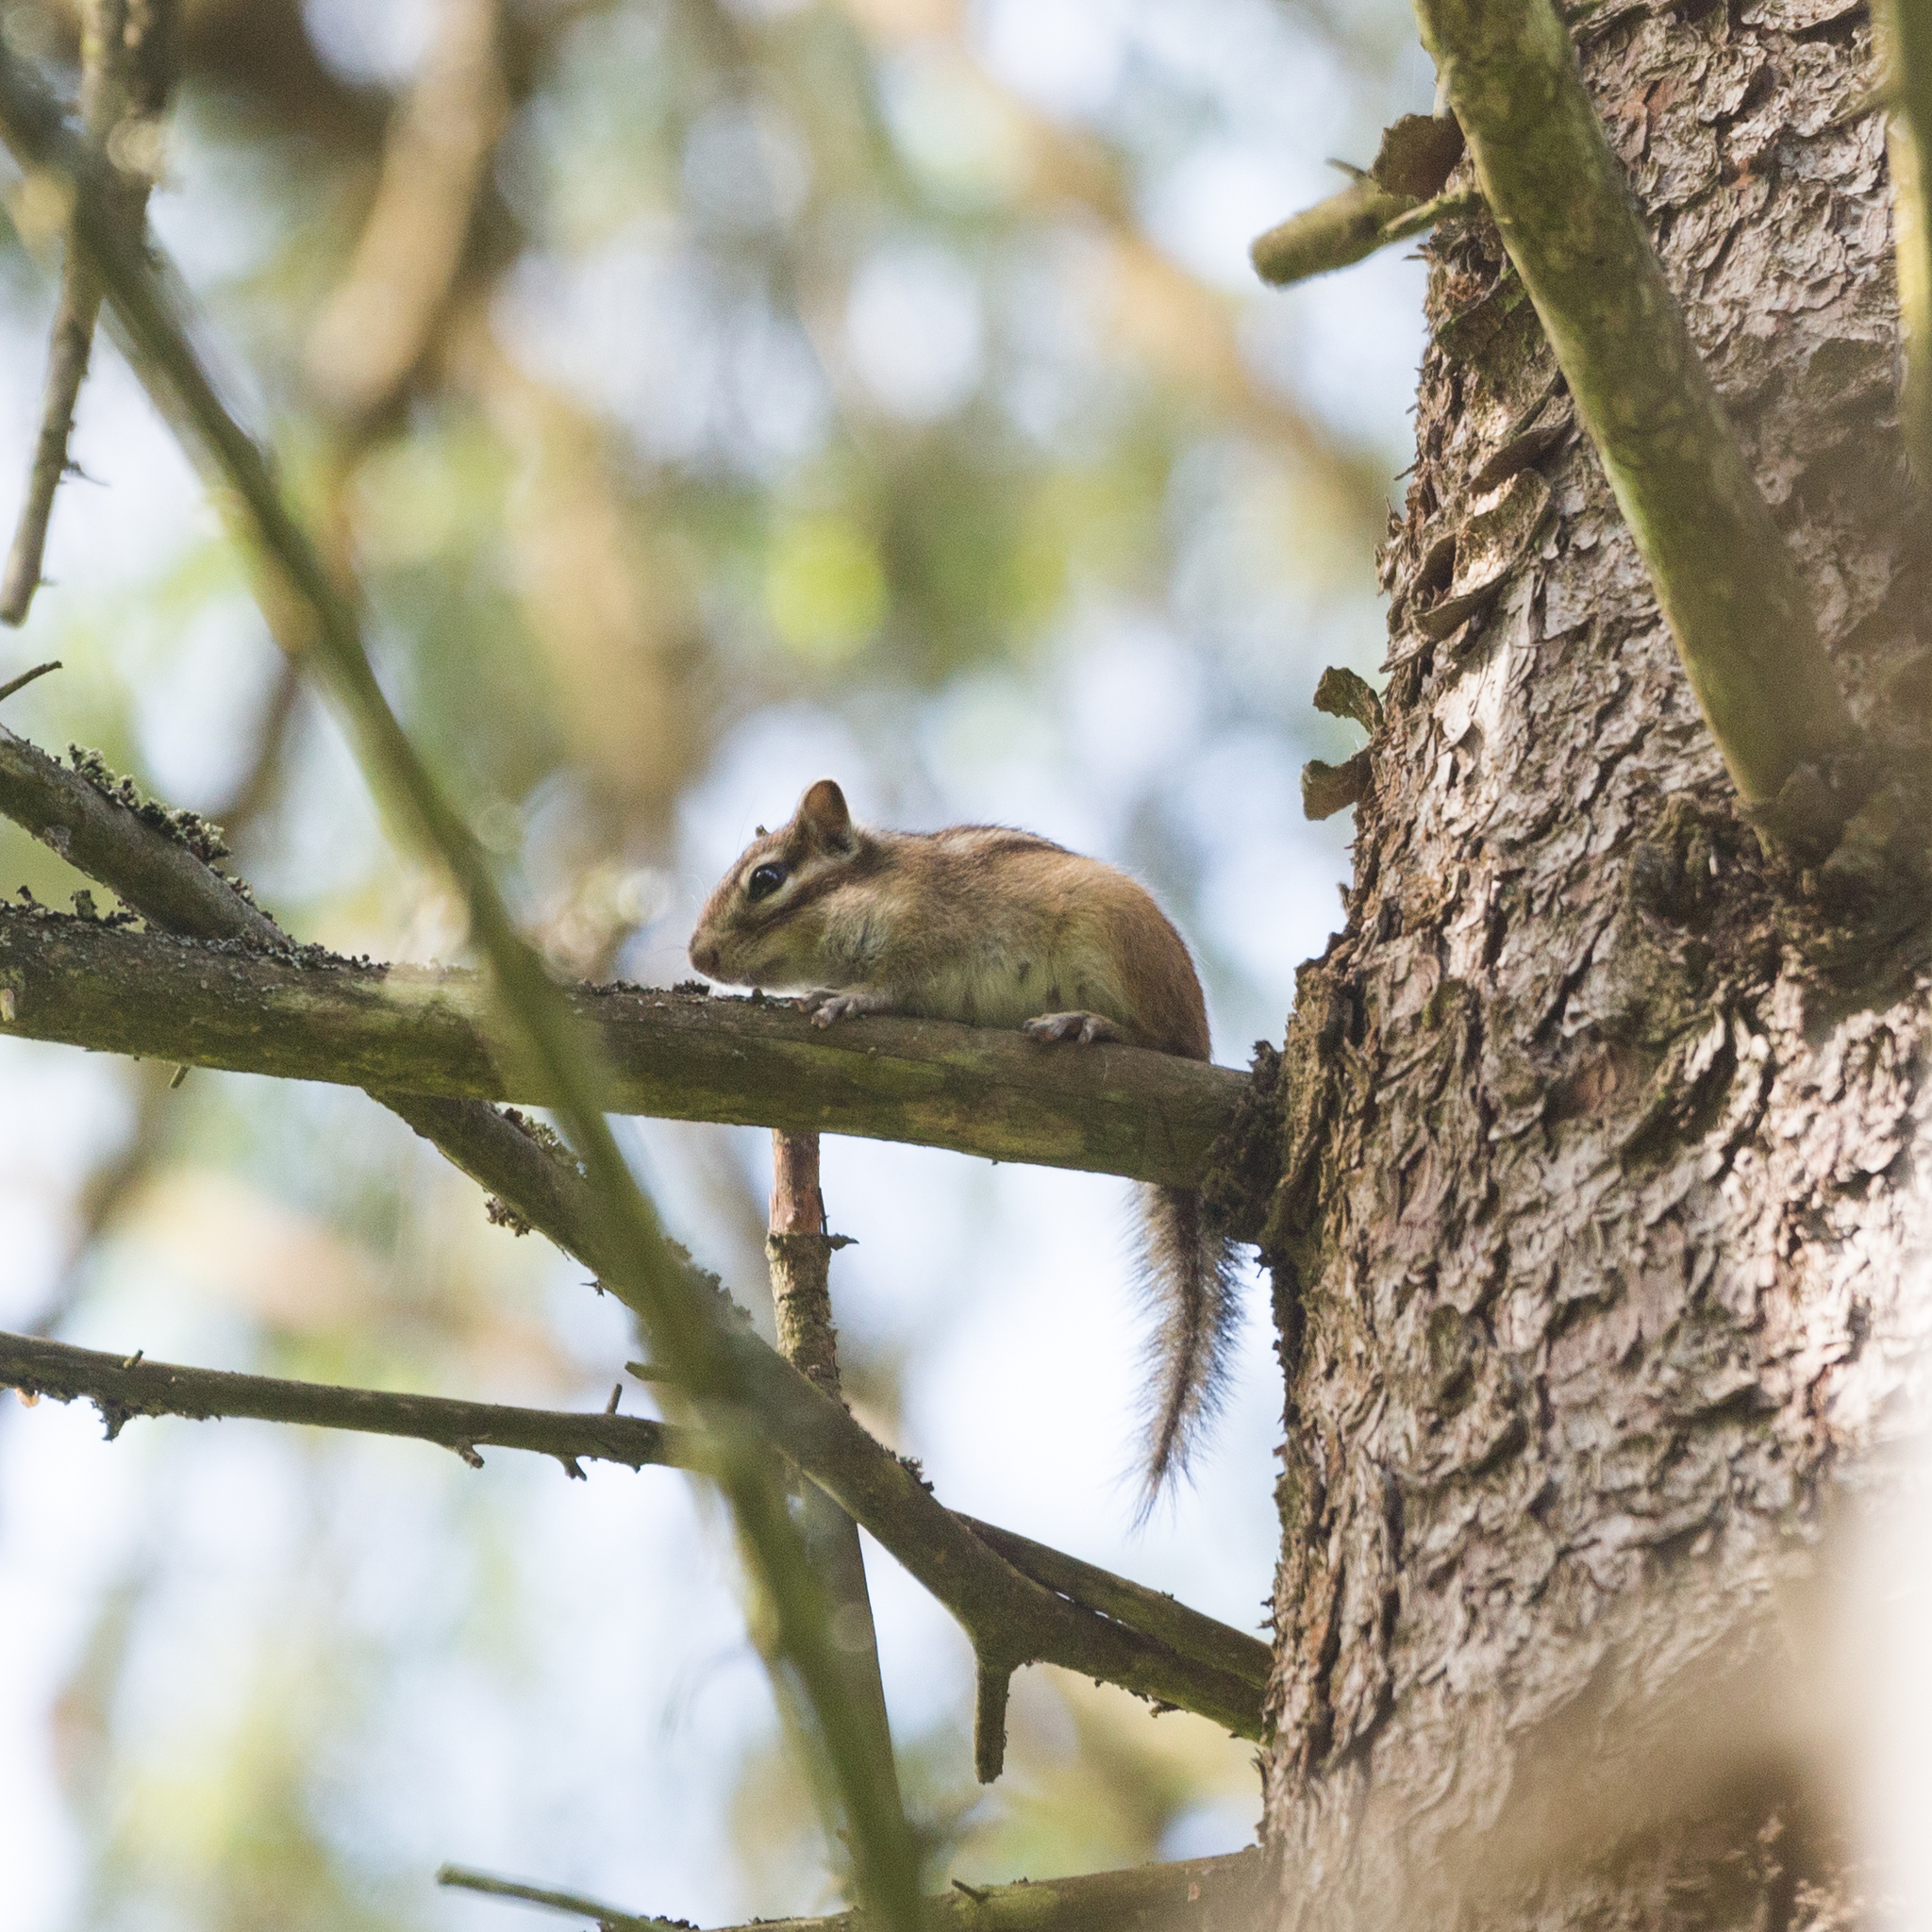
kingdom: Animalia
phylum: Chordata
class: Mammalia
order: Rodentia
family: Sciuridae
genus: Tamias
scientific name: Tamias sibiricus
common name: Siberian chipmunk
